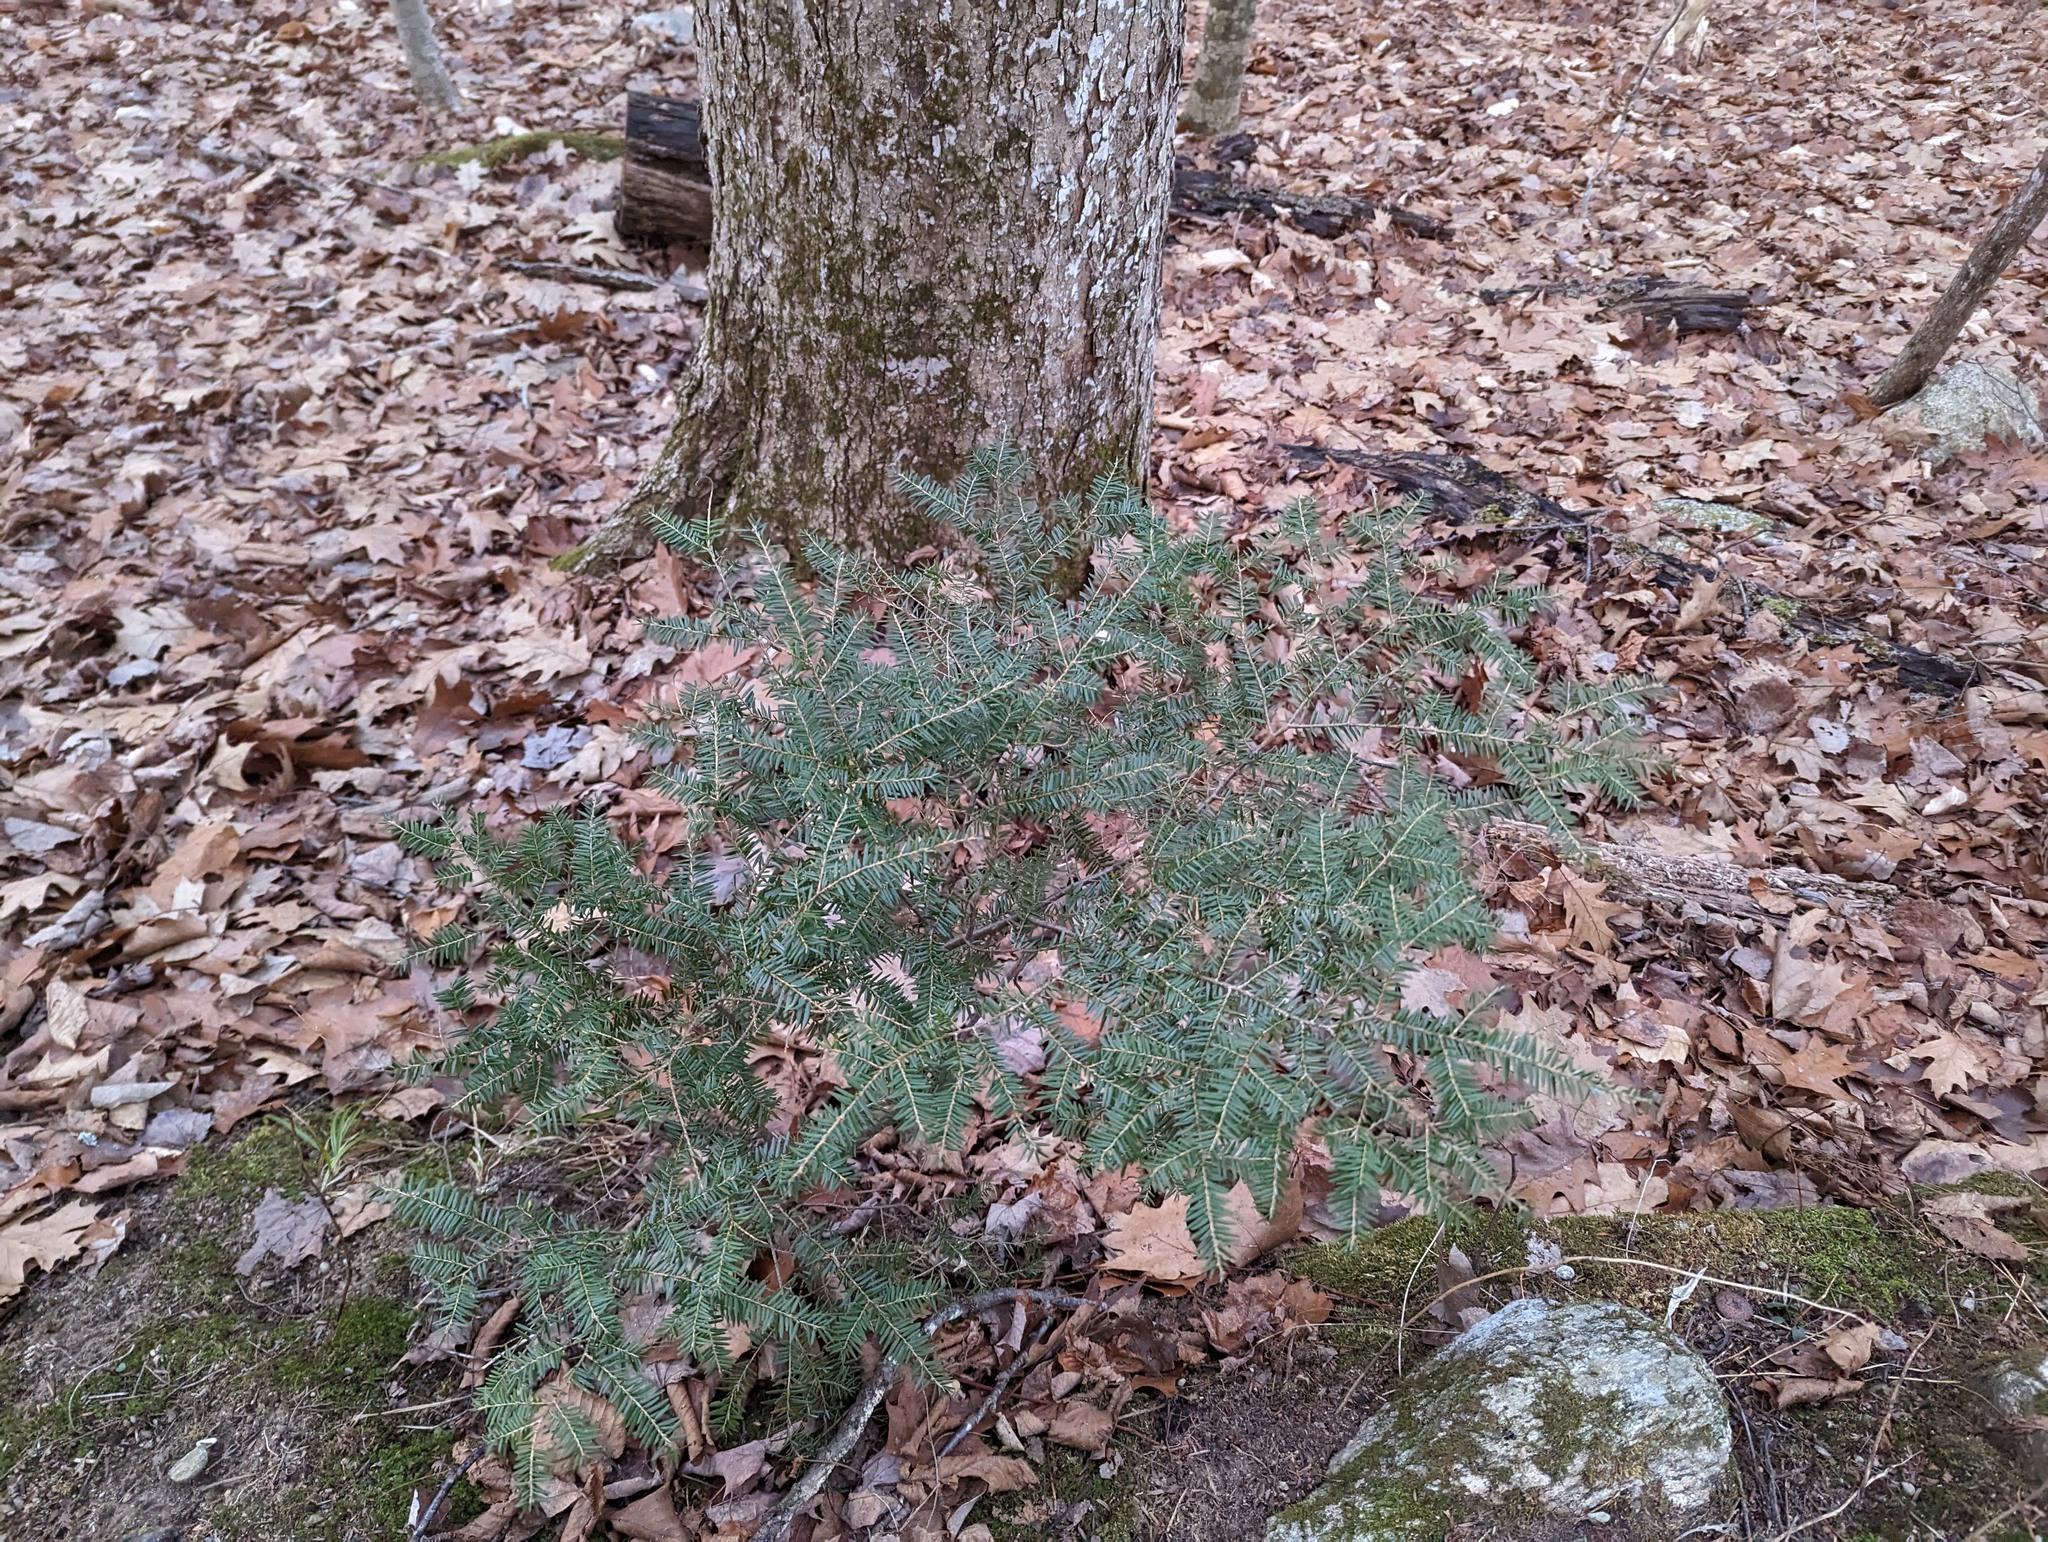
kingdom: Plantae
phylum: Tracheophyta
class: Pinopsida
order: Pinales
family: Pinaceae
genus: Tsuga
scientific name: Tsuga canadensis
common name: Eastern hemlock
